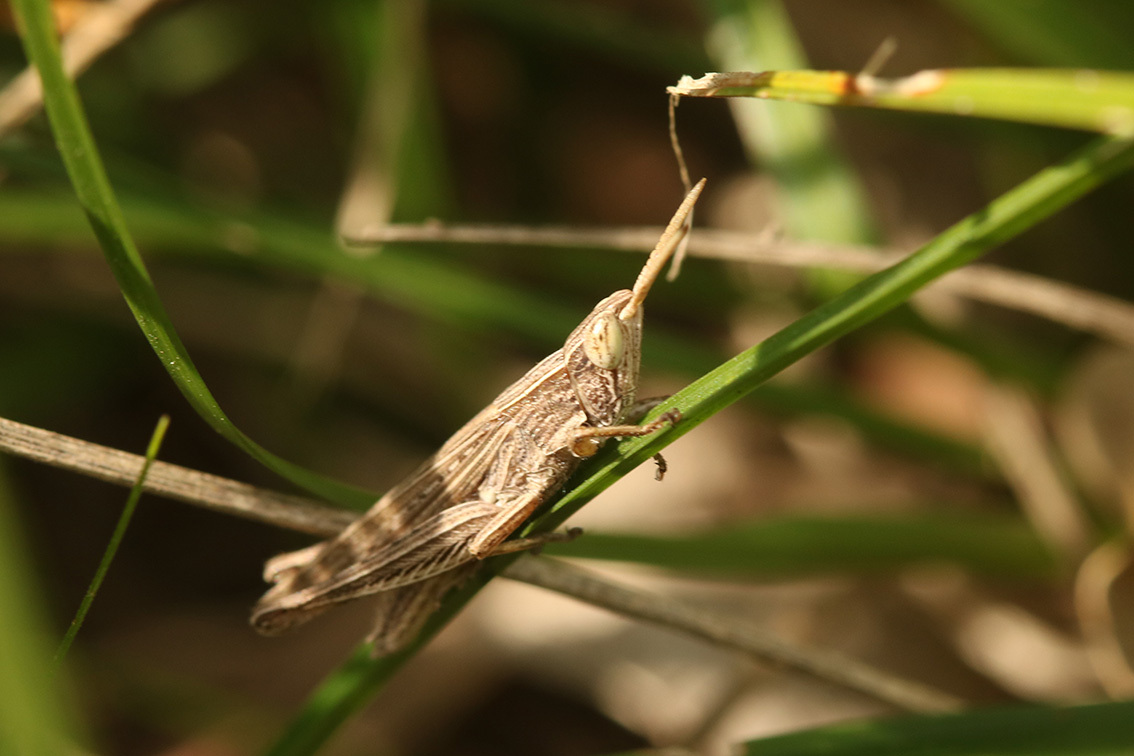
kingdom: Animalia
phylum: Arthropoda
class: Insecta
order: Orthoptera
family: Acrididae
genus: Laplatacris
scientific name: Laplatacris dispar
